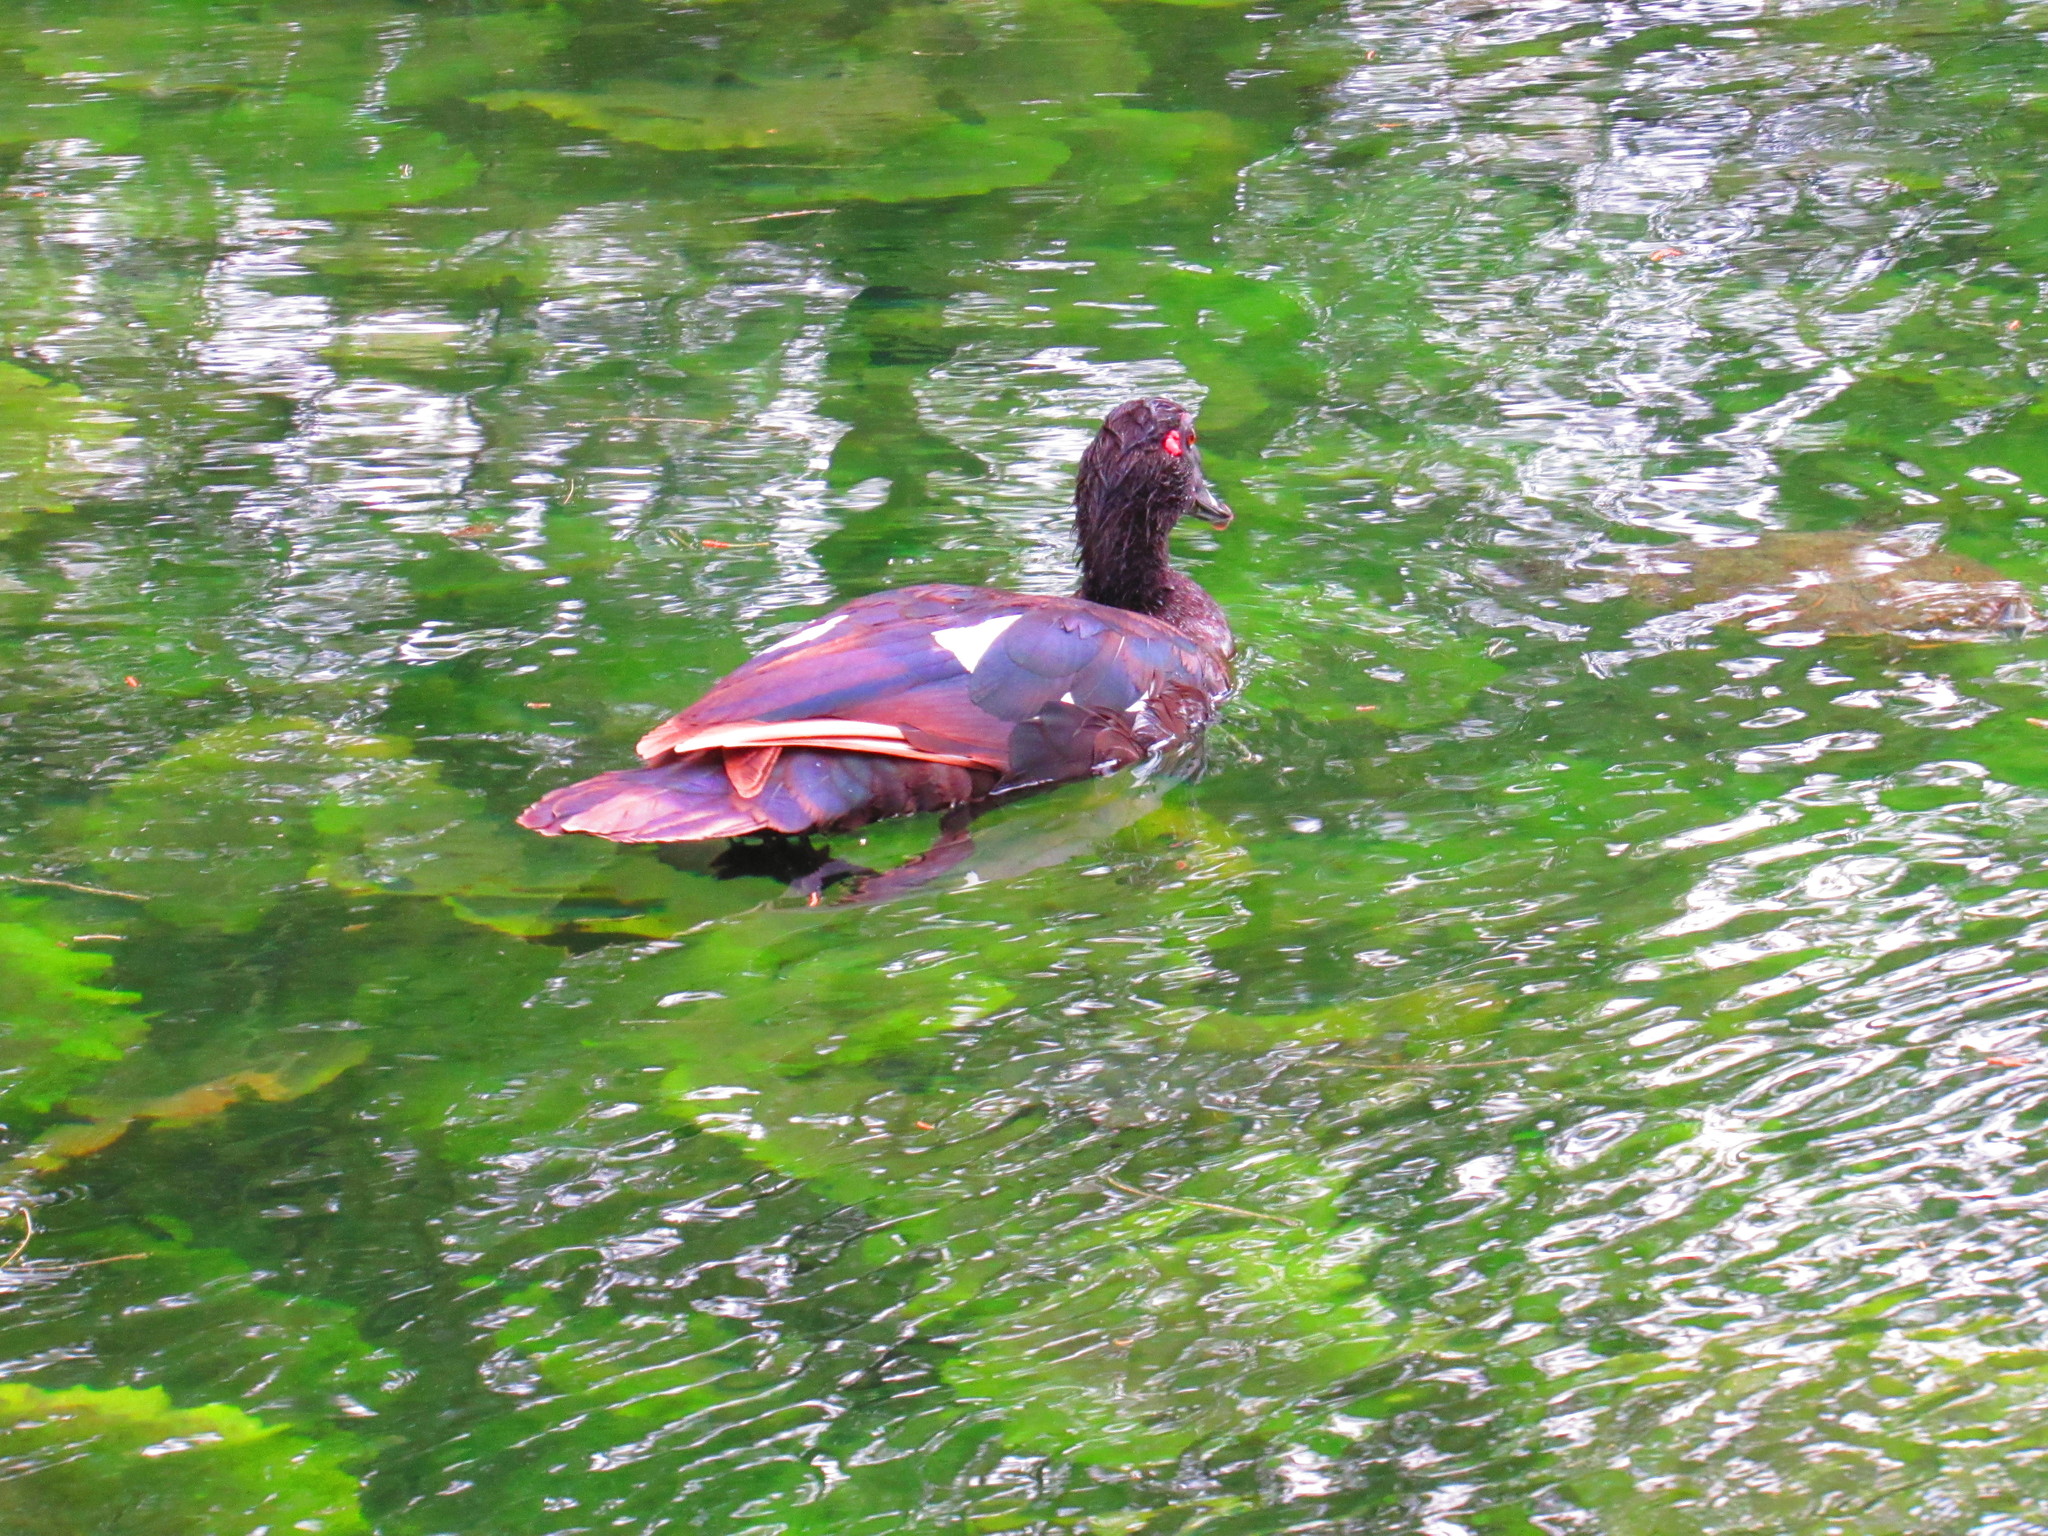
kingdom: Animalia
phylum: Chordata
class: Aves
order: Anseriformes
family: Anatidae
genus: Cairina
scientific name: Cairina moschata
